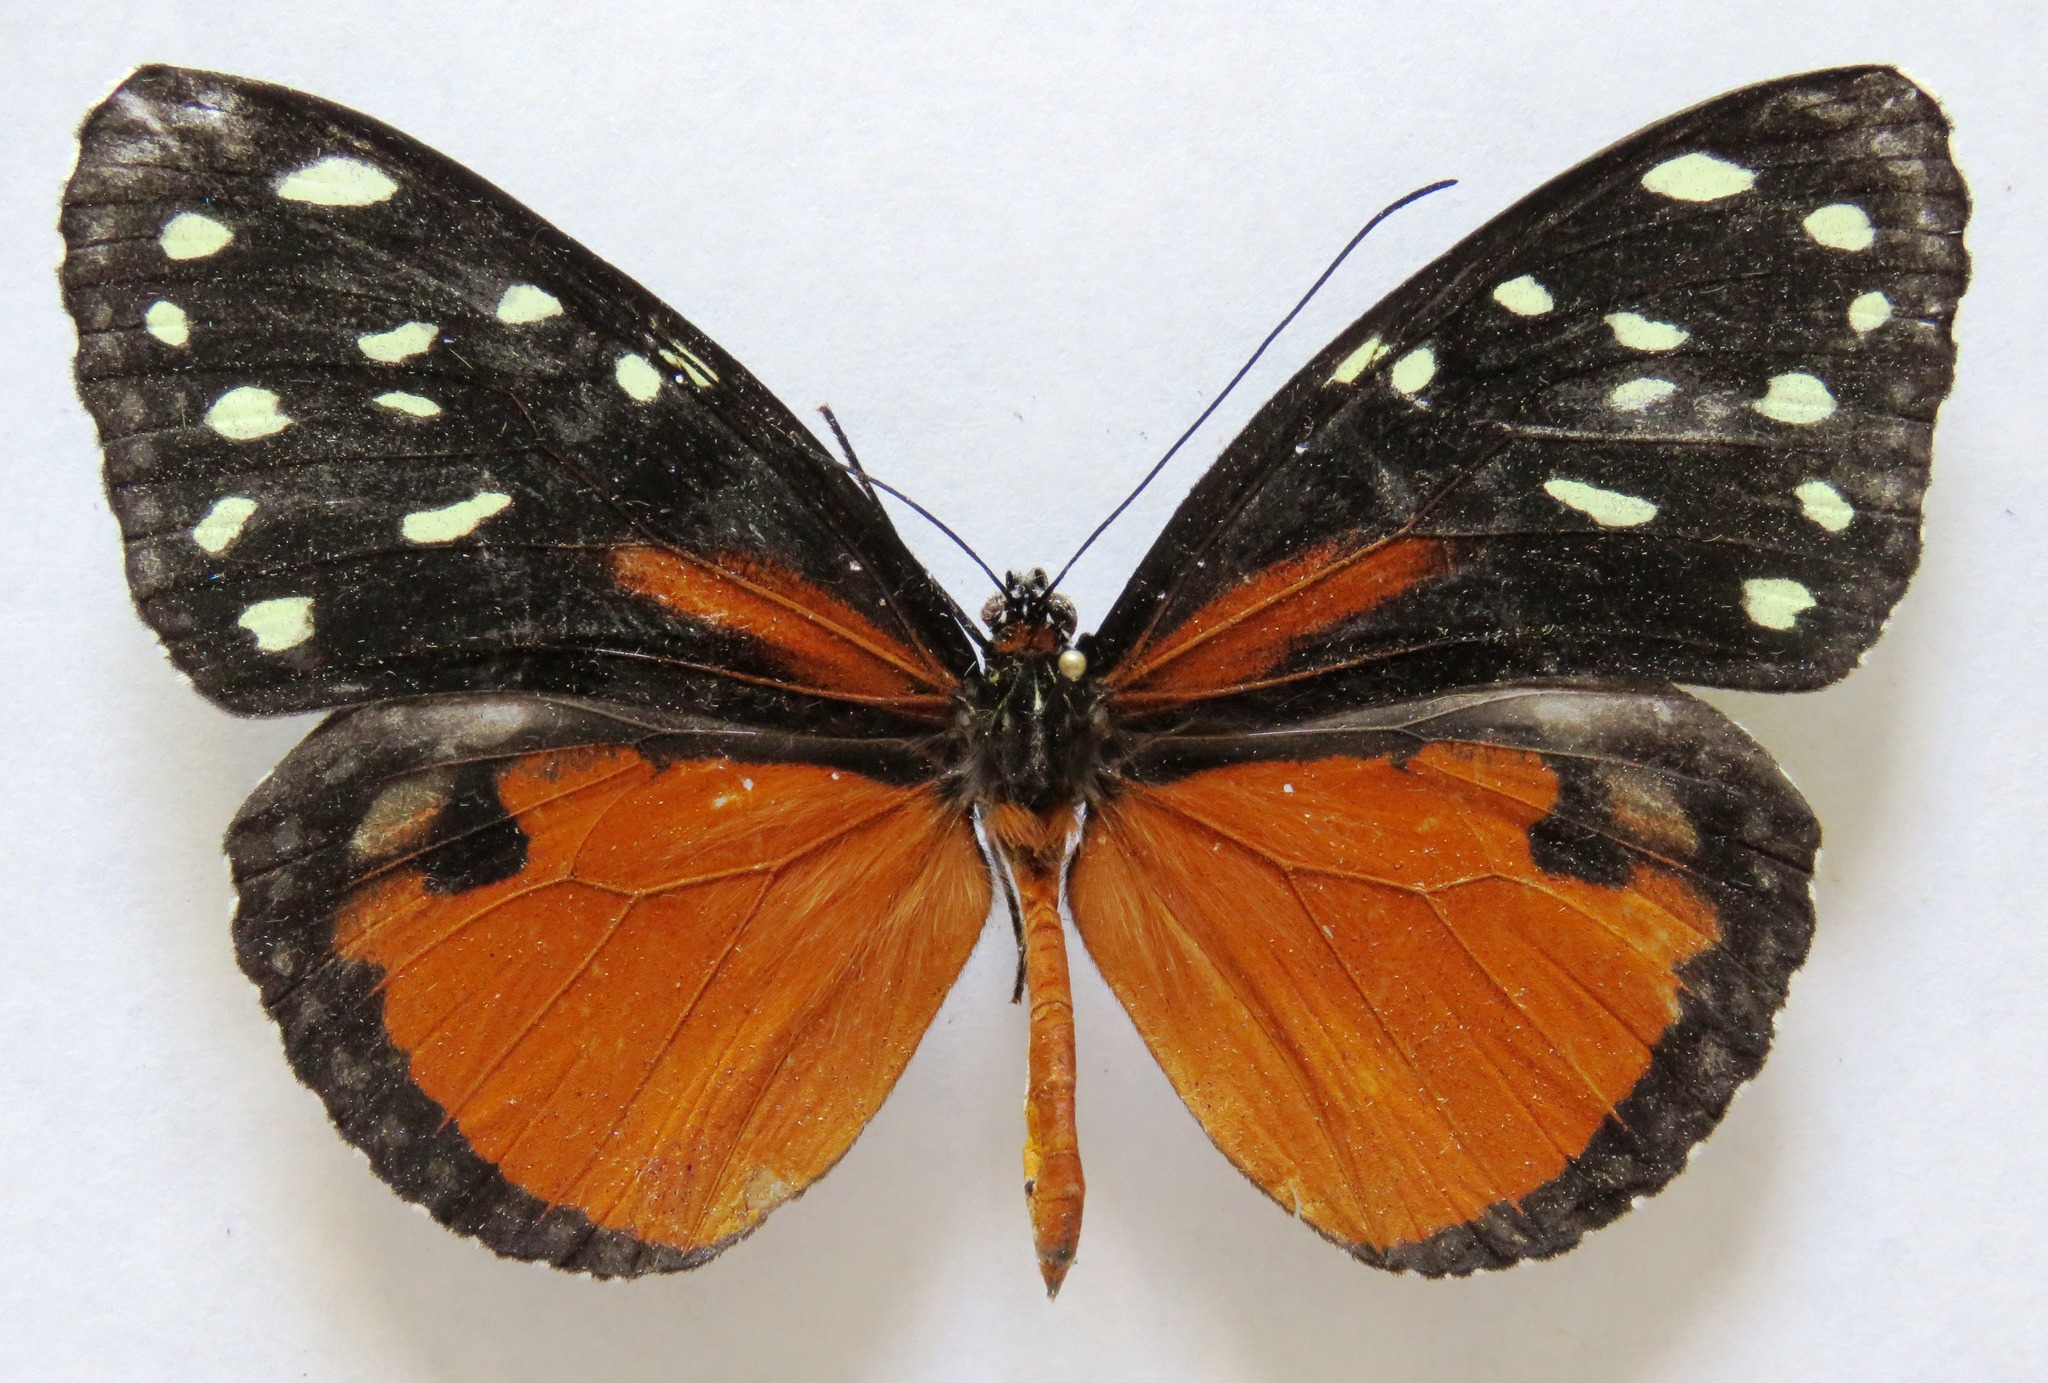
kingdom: Animalia
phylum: Arthropoda
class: Insecta
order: Lepidoptera
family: Nymphalidae
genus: Tithorea
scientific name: Tithorea tarricina
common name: Cream-spotted tigerwing
